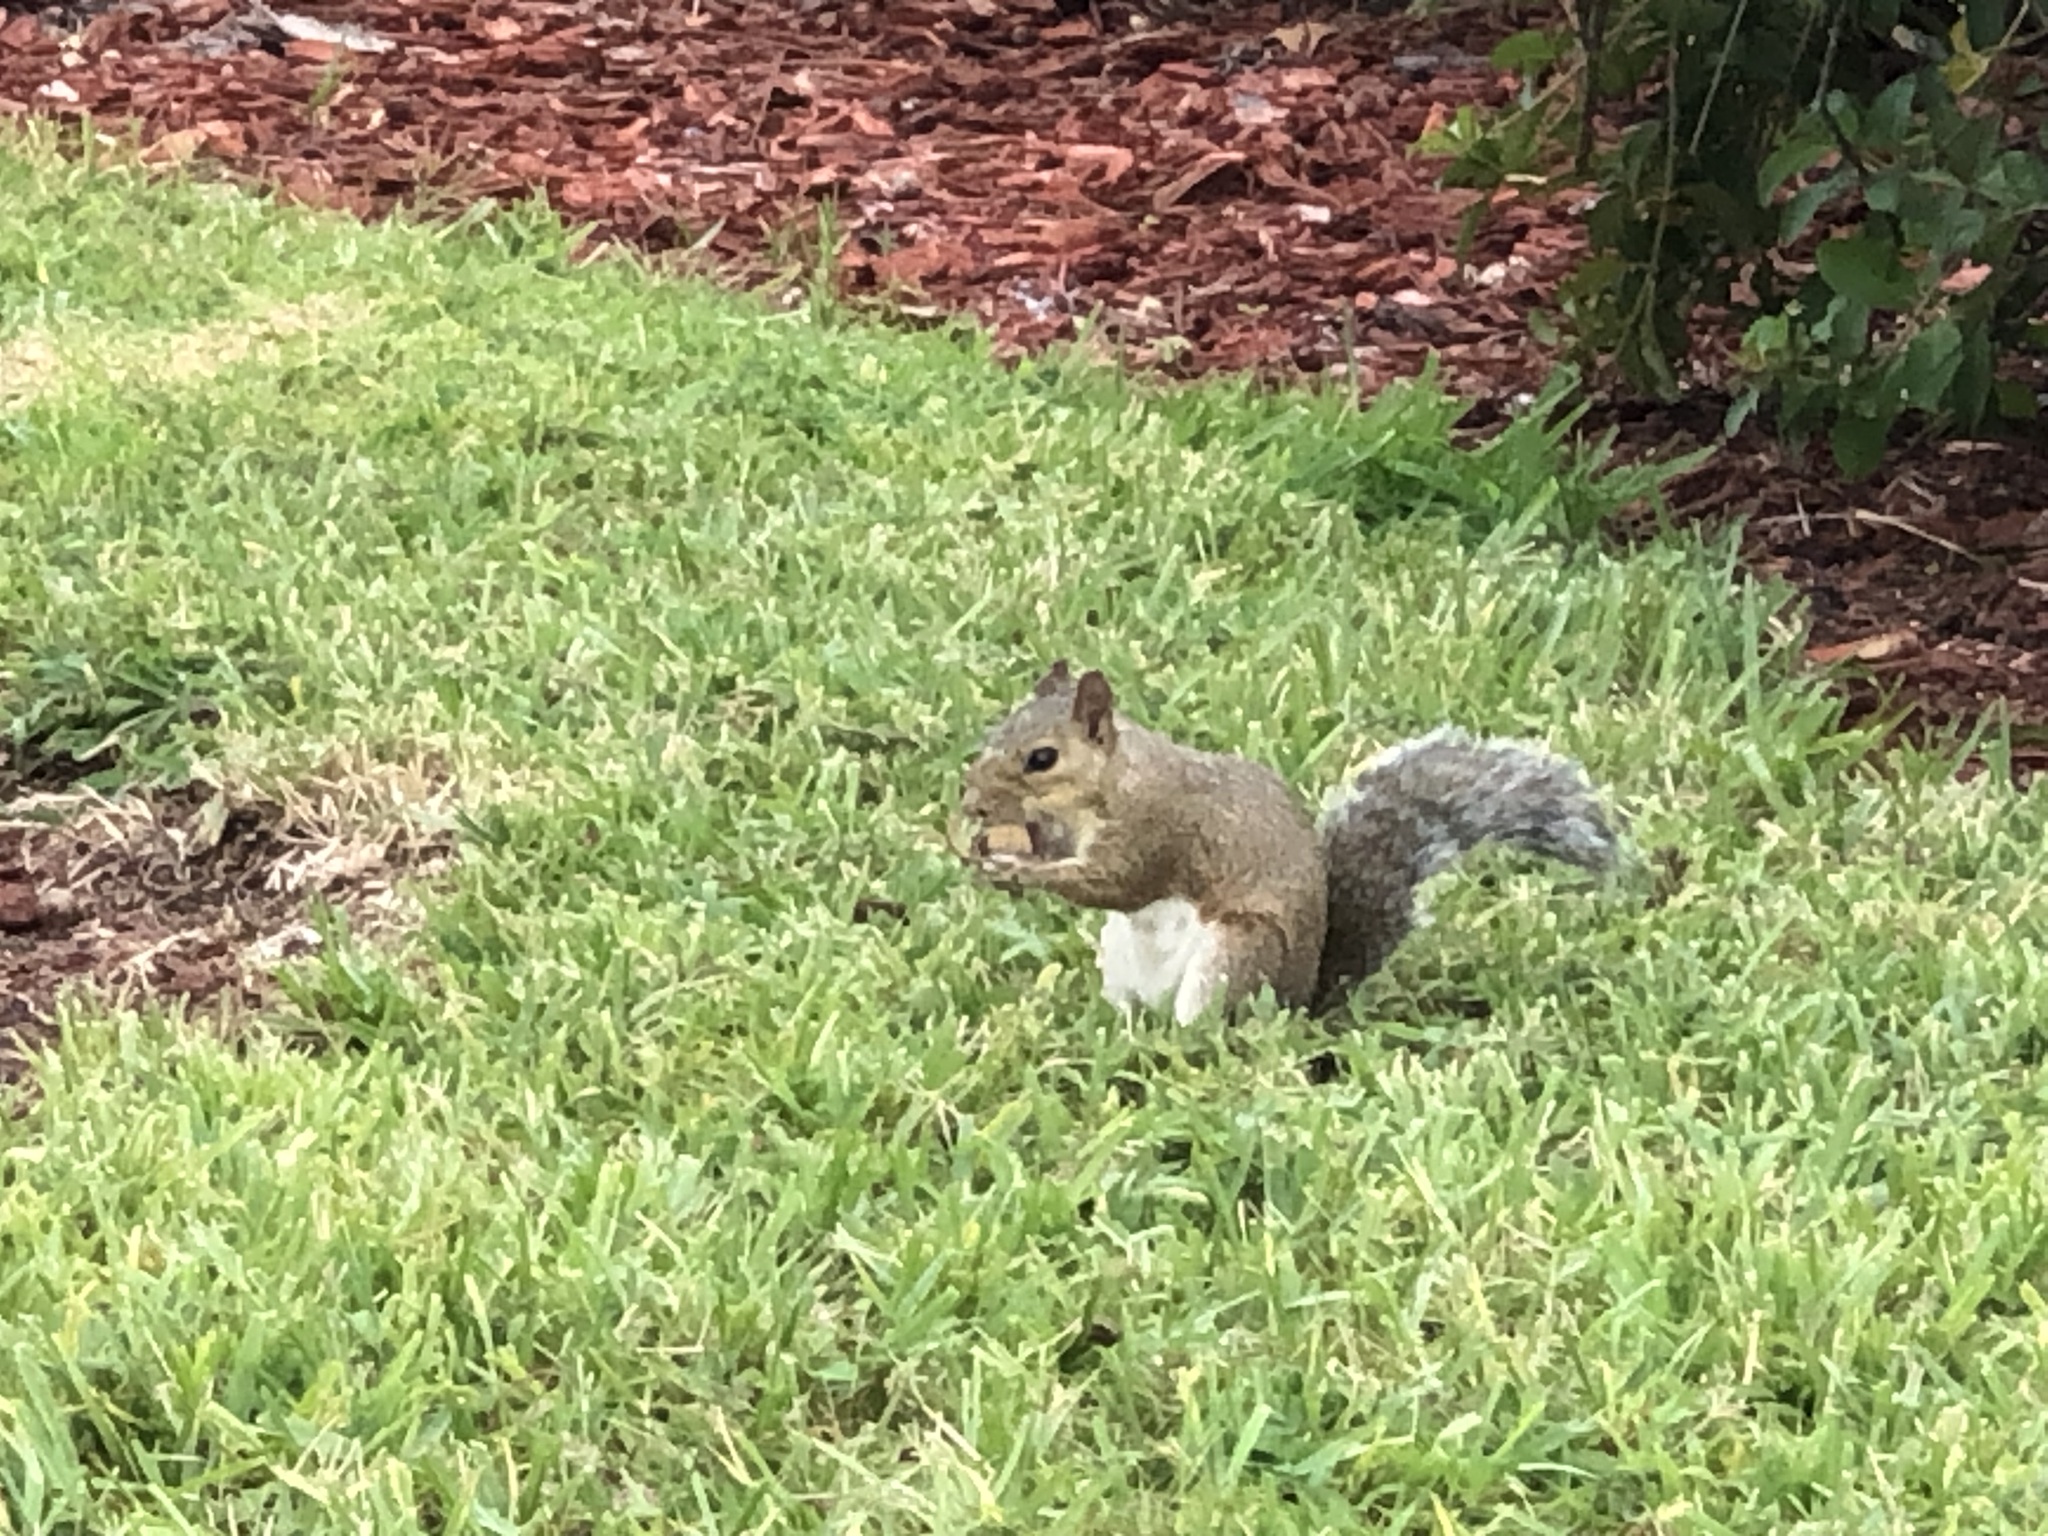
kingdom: Animalia
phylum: Chordata
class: Mammalia
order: Rodentia
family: Sciuridae
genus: Sciurus
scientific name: Sciurus carolinensis
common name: Eastern gray squirrel
